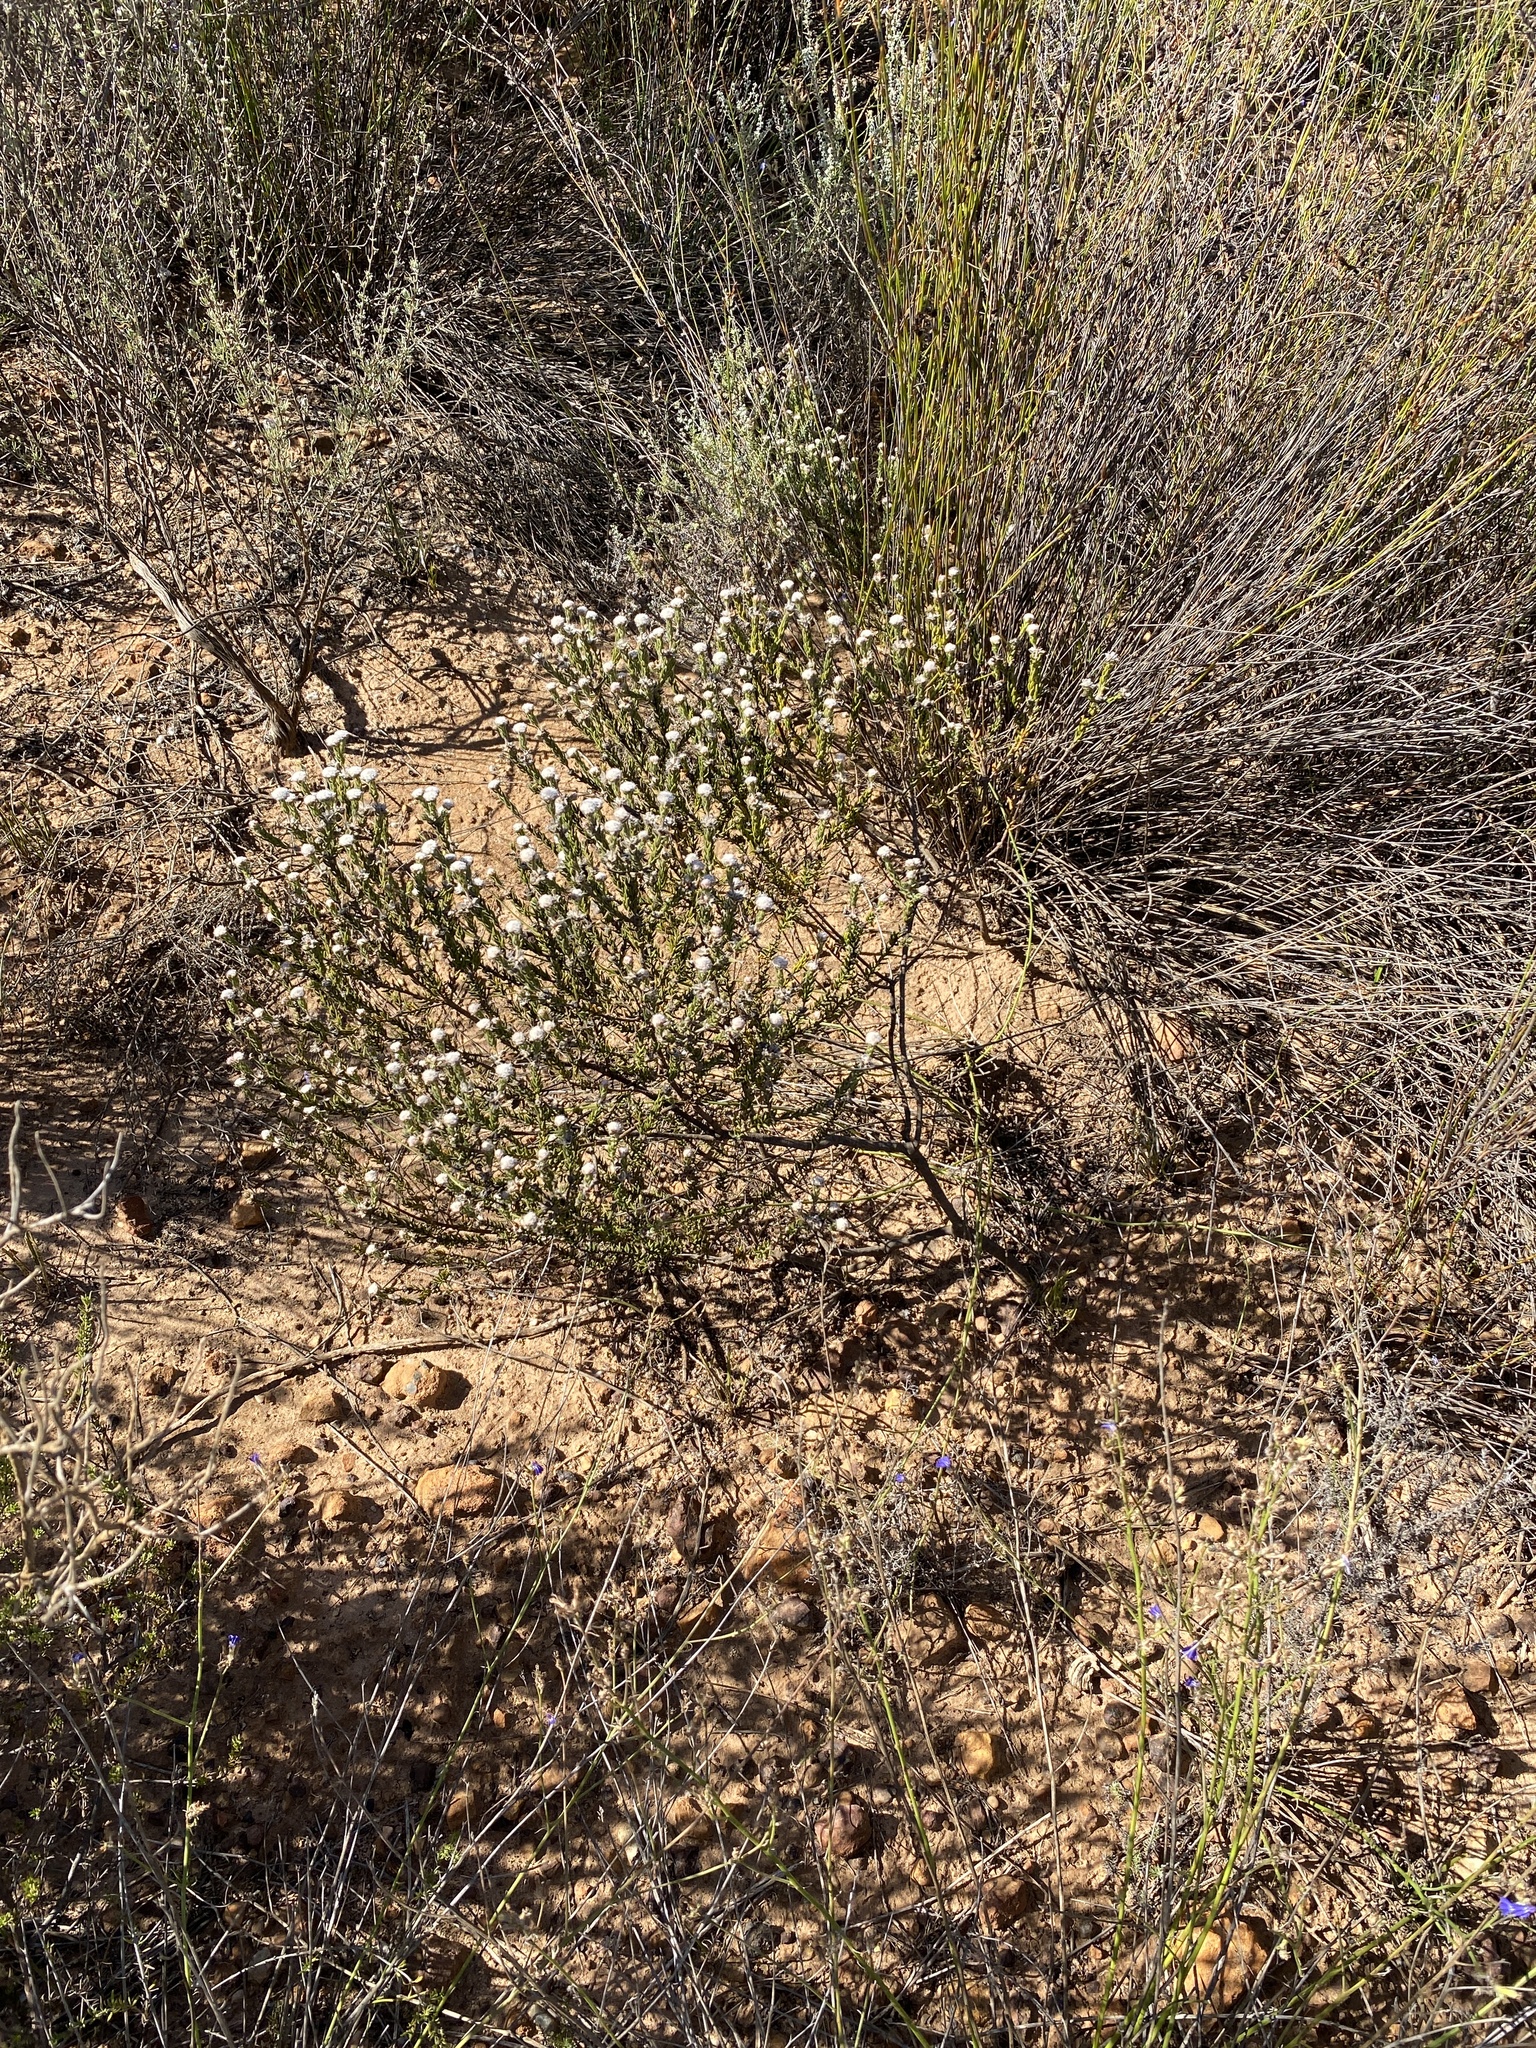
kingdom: Plantae
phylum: Tracheophyta
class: Magnoliopsida
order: Rosales
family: Rhamnaceae
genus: Phylica
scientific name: Phylica alpina
